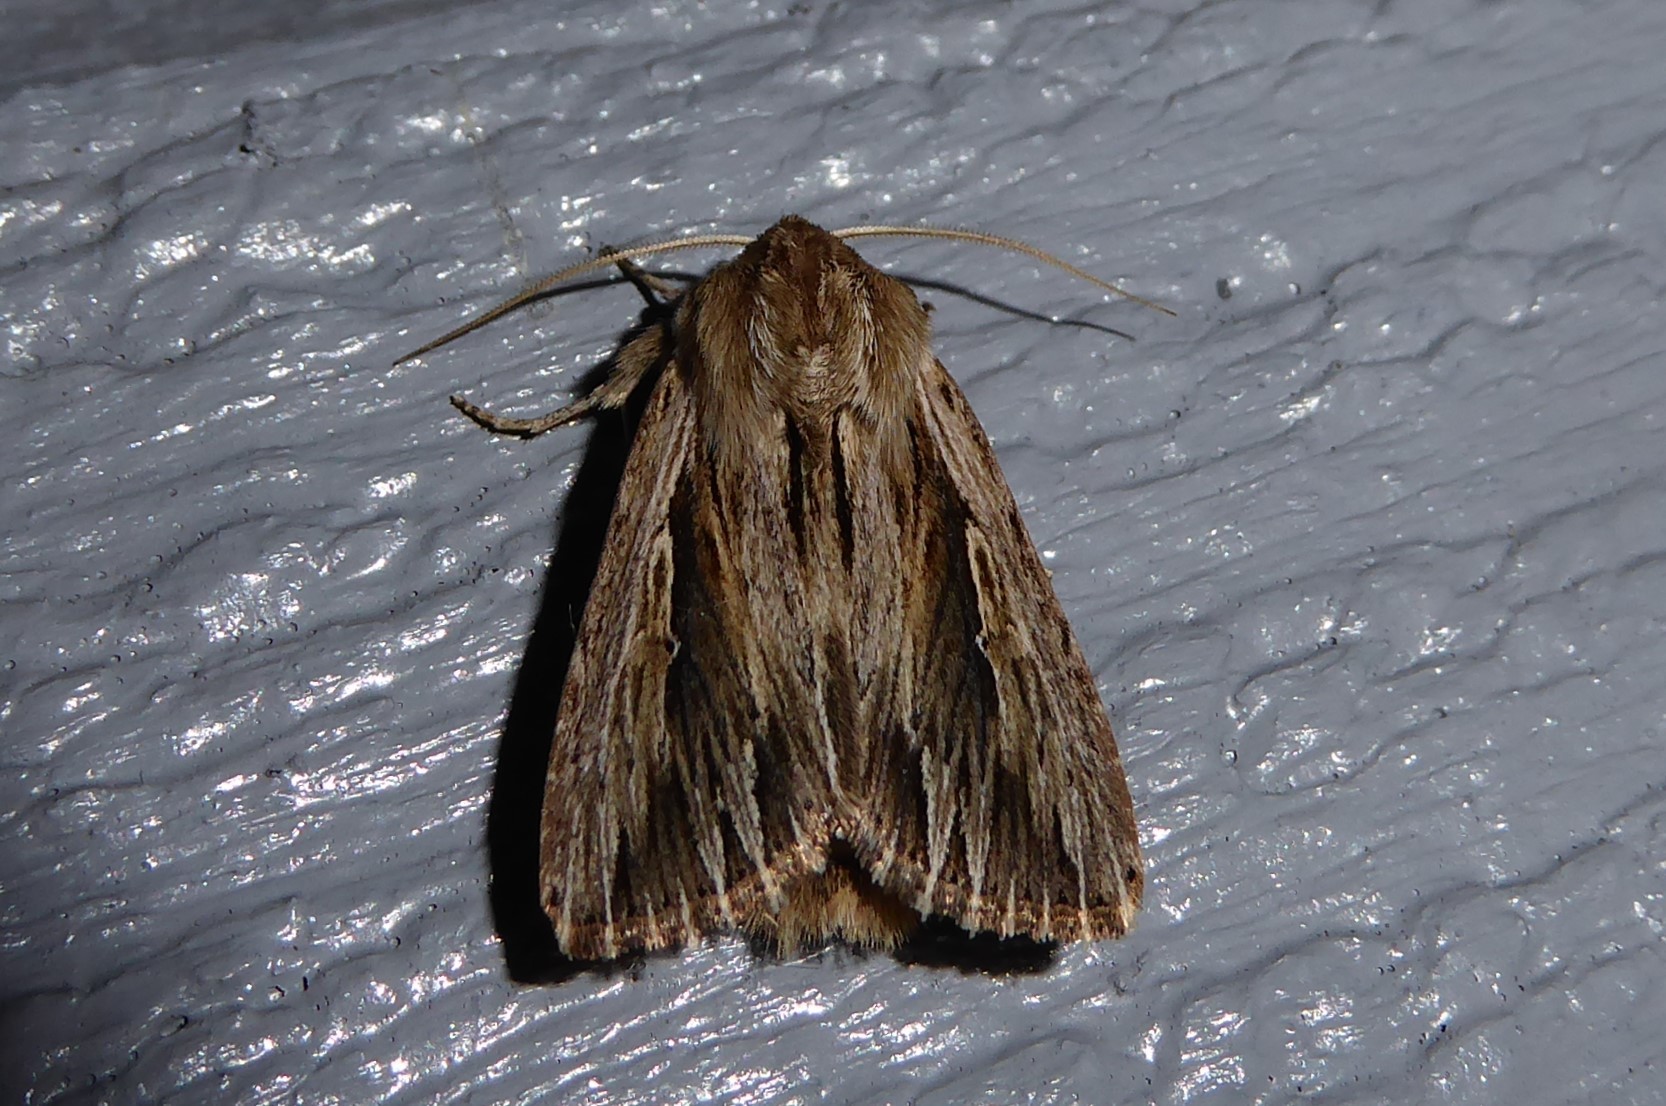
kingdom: Animalia
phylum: Arthropoda
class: Insecta
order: Lepidoptera
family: Noctuidae
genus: Persectania
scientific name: Persectania aversa
